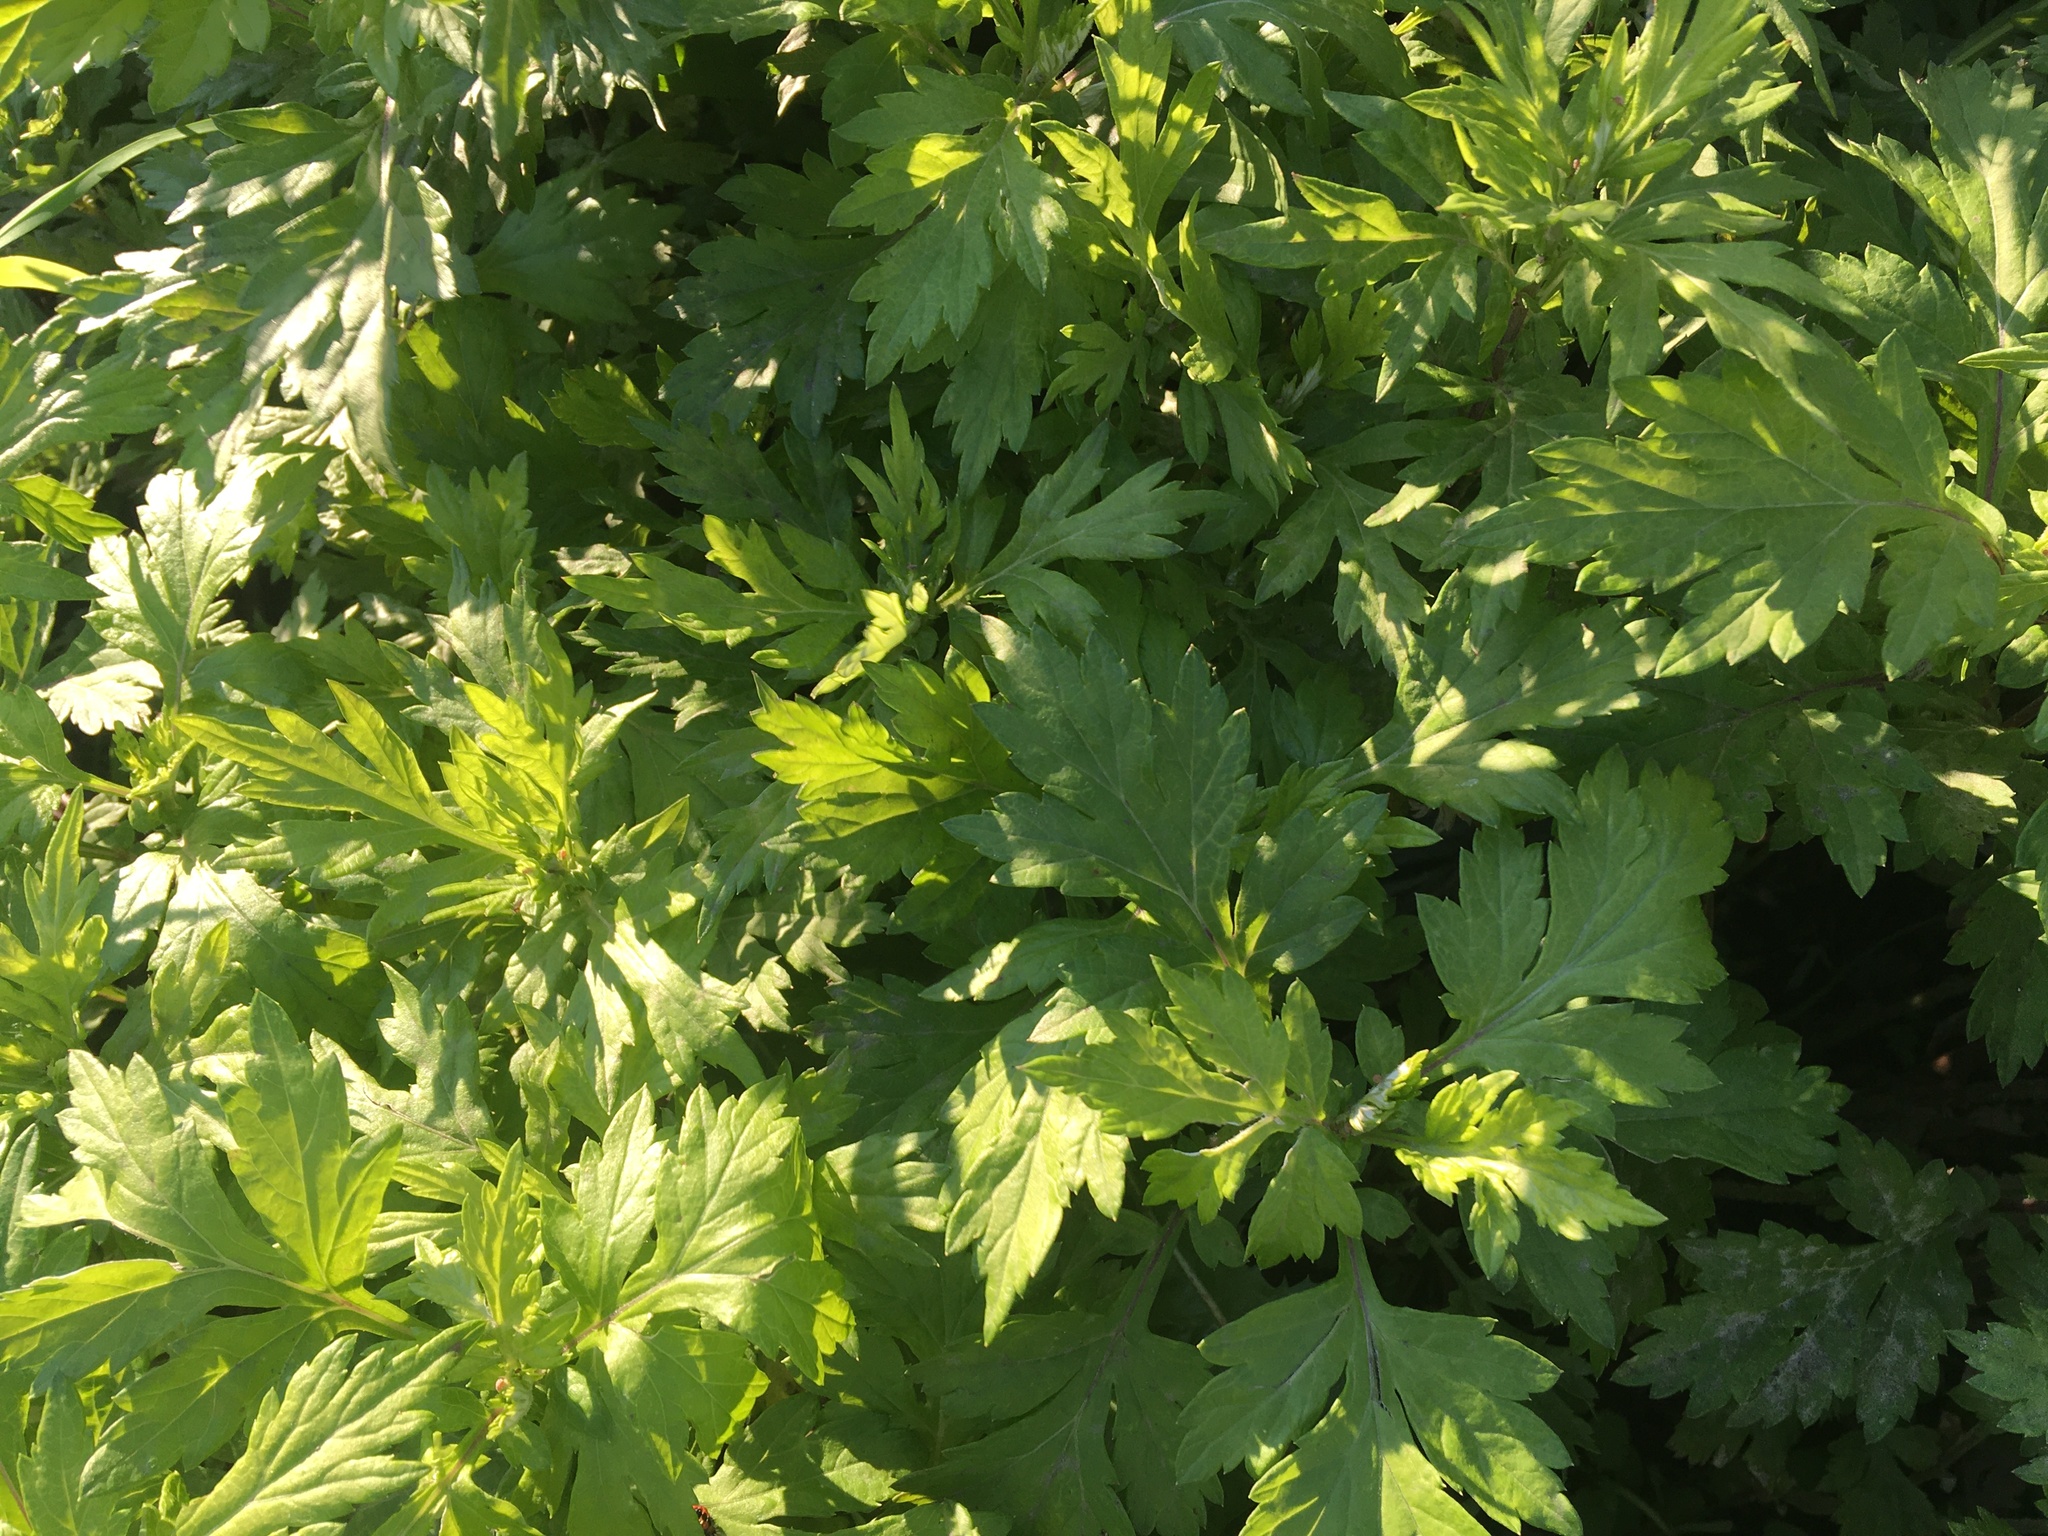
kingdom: Plantae
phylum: Tracheophyta
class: Magnoliopsida
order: Asterales
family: Asteraceae
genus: Artemisia
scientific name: Artemisia vulgaris
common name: Mugwort
